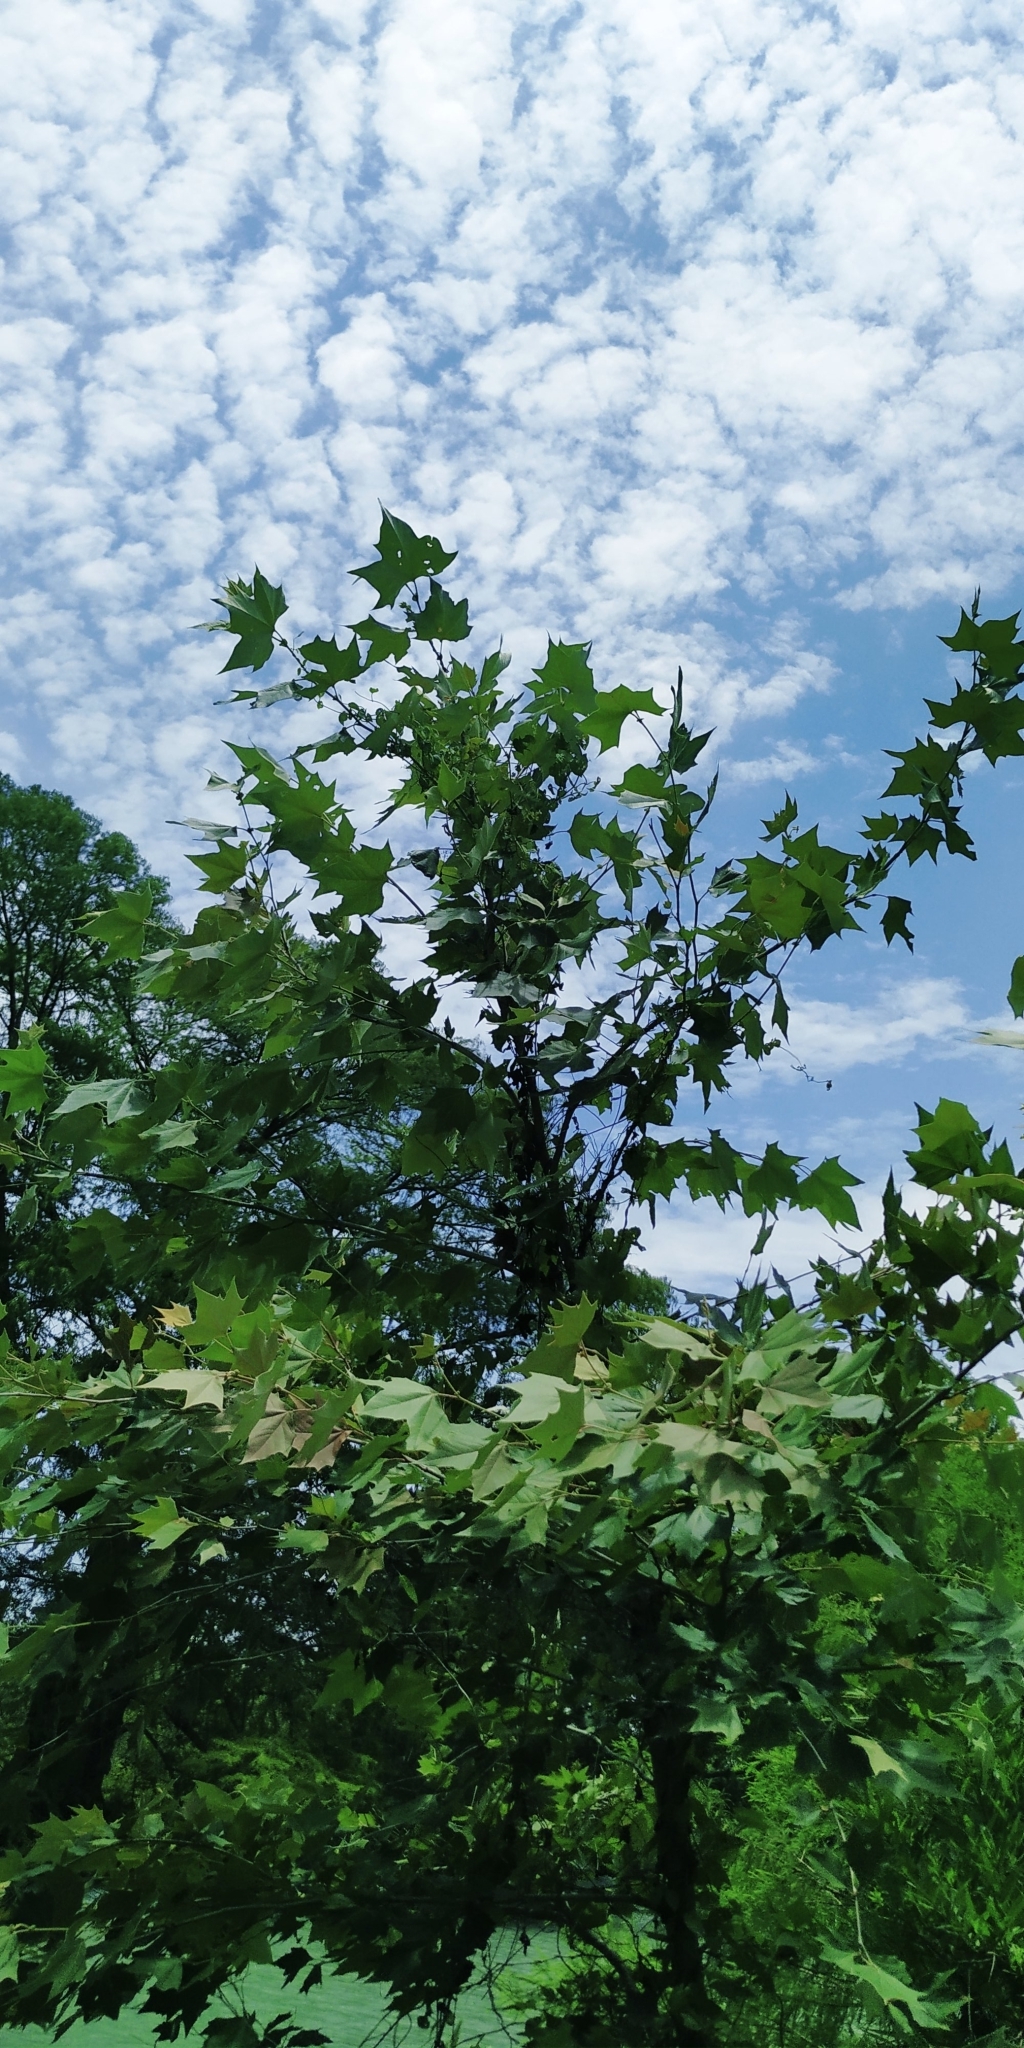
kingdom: Plantae
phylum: Tracheophyta
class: Magnoliopsida
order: Proteales
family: Platanaceae
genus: Platanus
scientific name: Platanus rzedowskii
